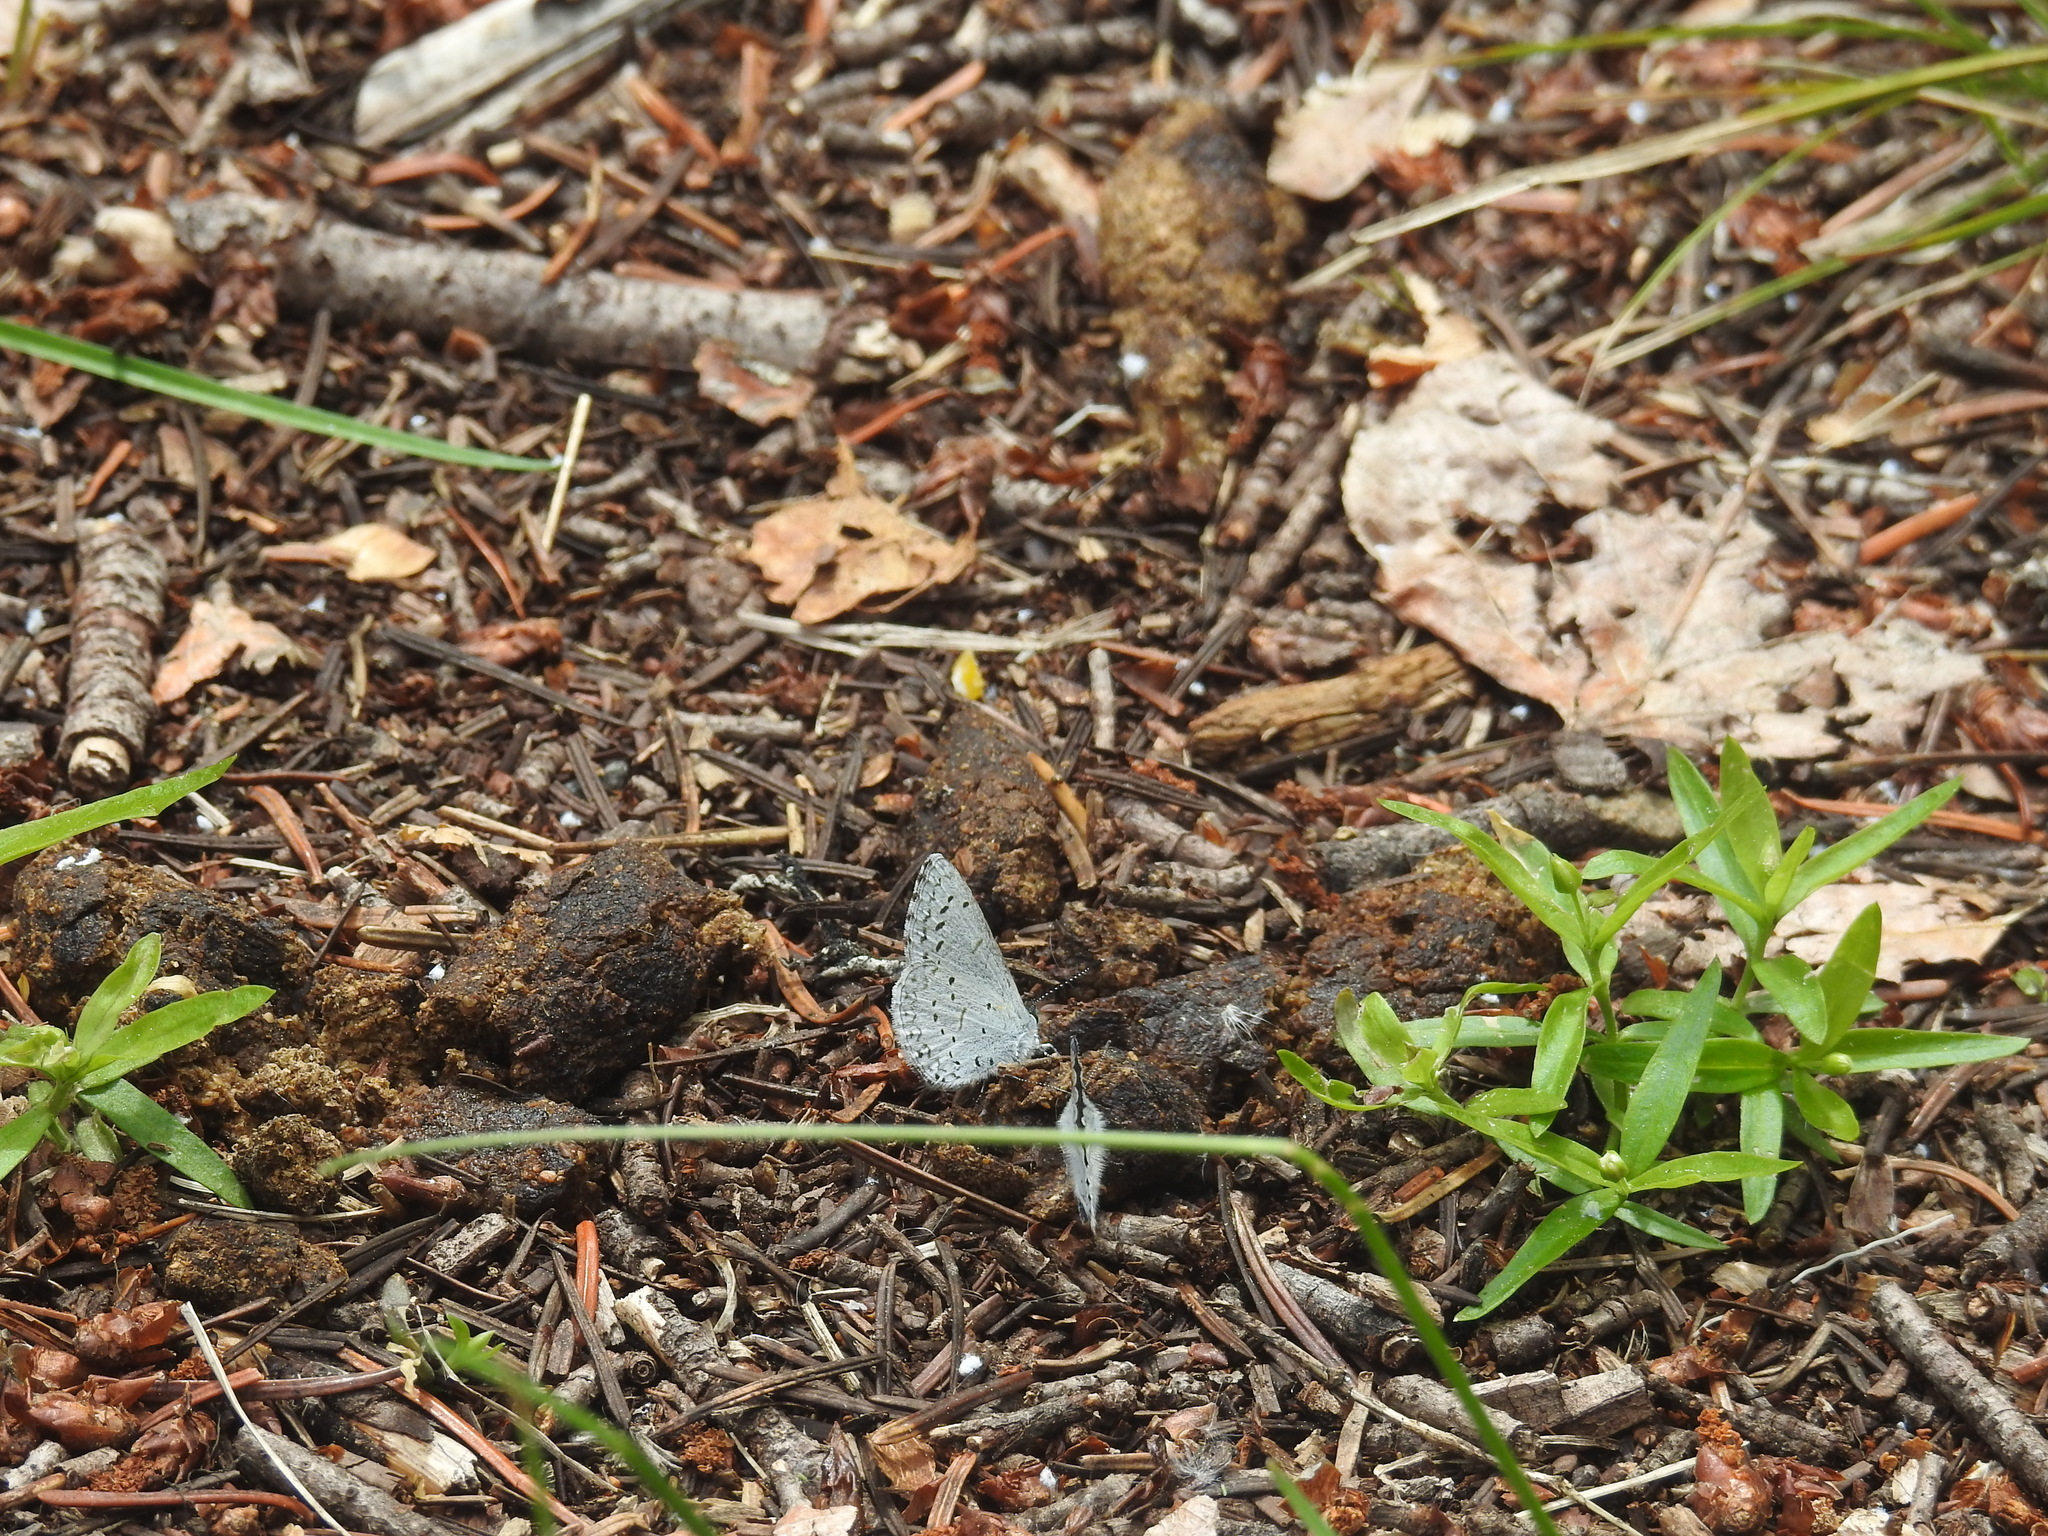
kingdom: Animalia
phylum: Arthropoda
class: Insecta
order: Lepidoptera
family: Lycaenidae
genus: Celastrina
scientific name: Celastrina ladon
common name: Spring azure
